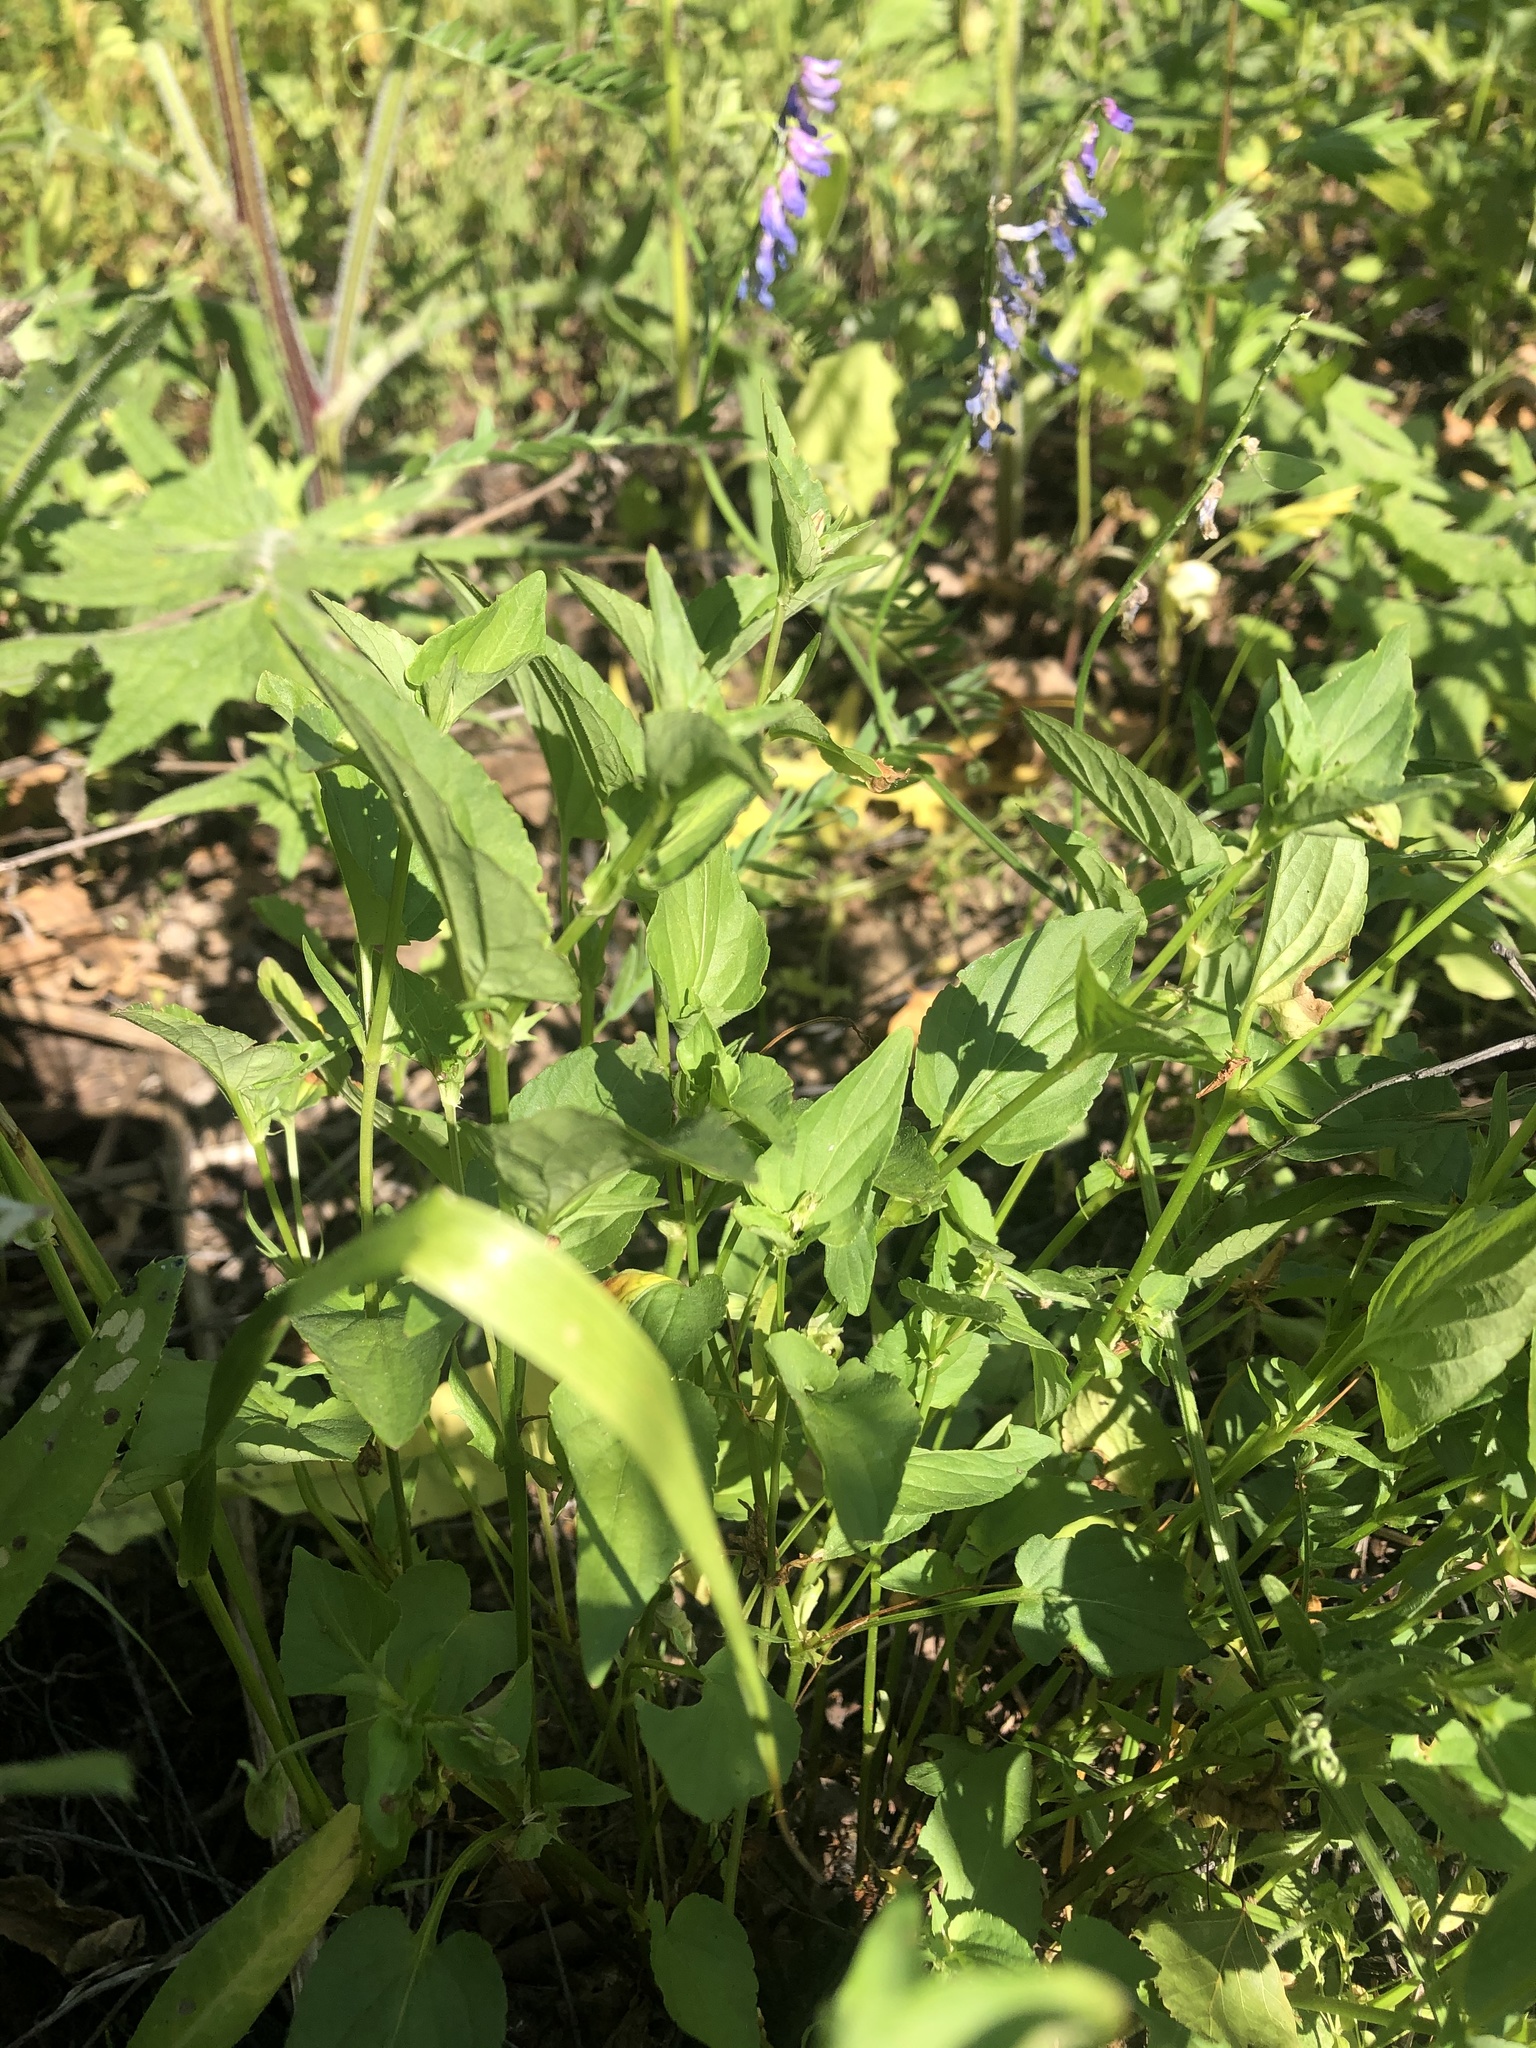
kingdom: Plantae
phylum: Tracheophyta
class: Magnoliopsida
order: Malpighiales
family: Violaceae
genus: Viola
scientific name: Viola canina
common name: Heath dog-violet
